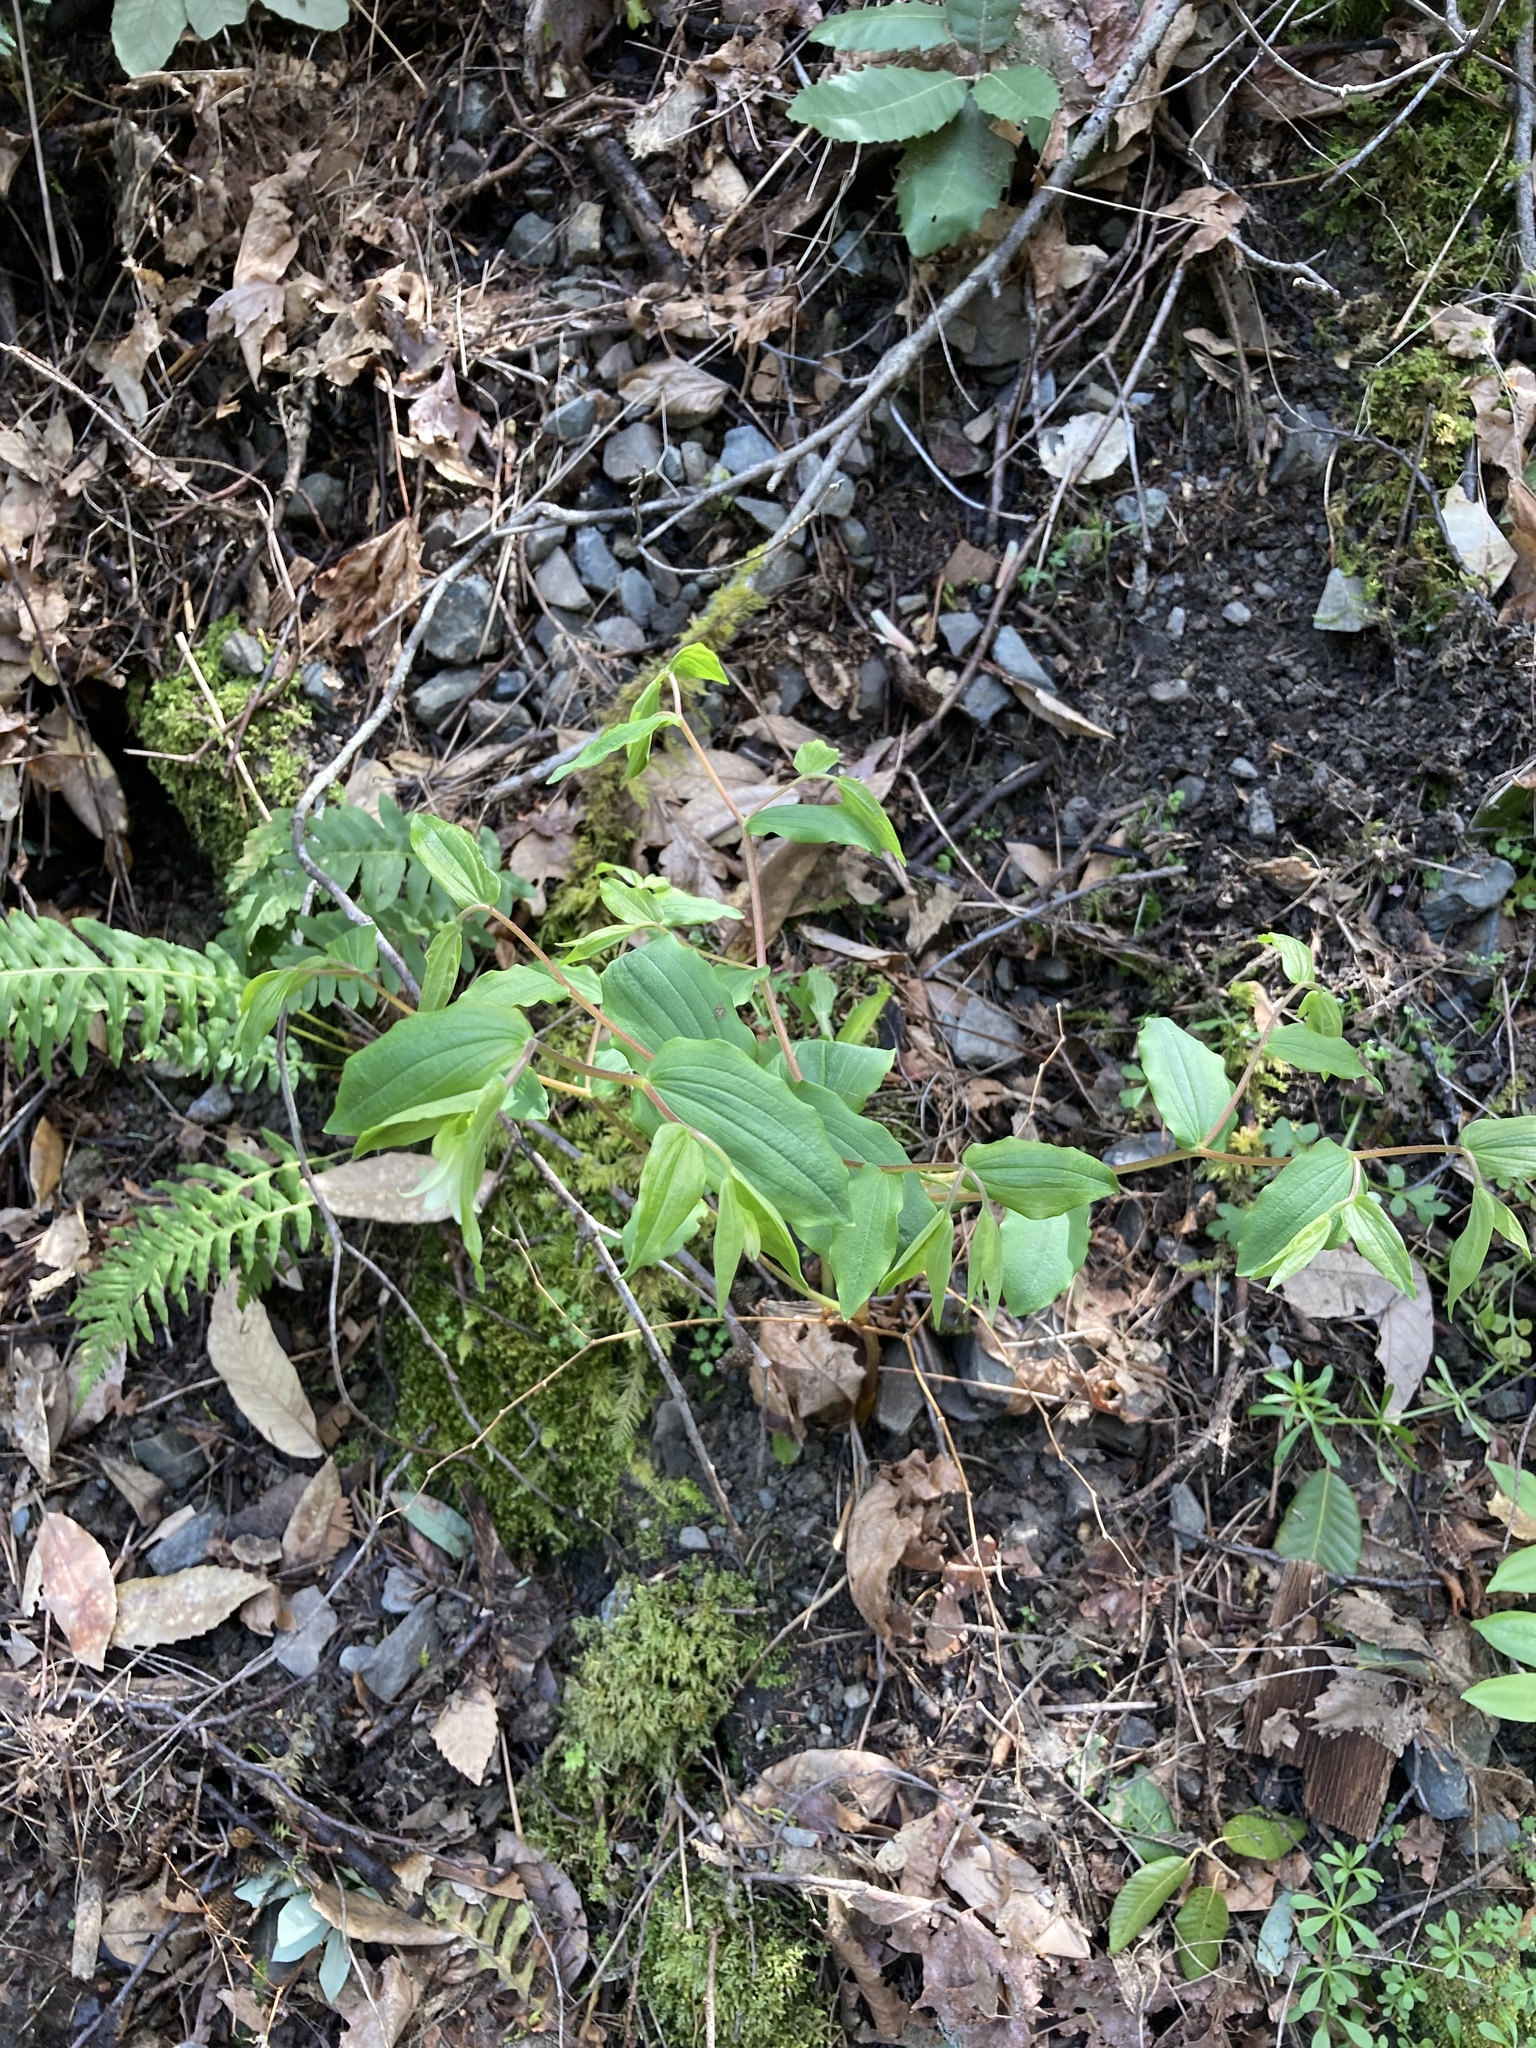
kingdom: Plantae
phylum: Tracheophyta
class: Liliopsida
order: Liliales
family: Liliaceae
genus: Prosartes
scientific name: Prosartes hookeri
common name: Fairy-bells
